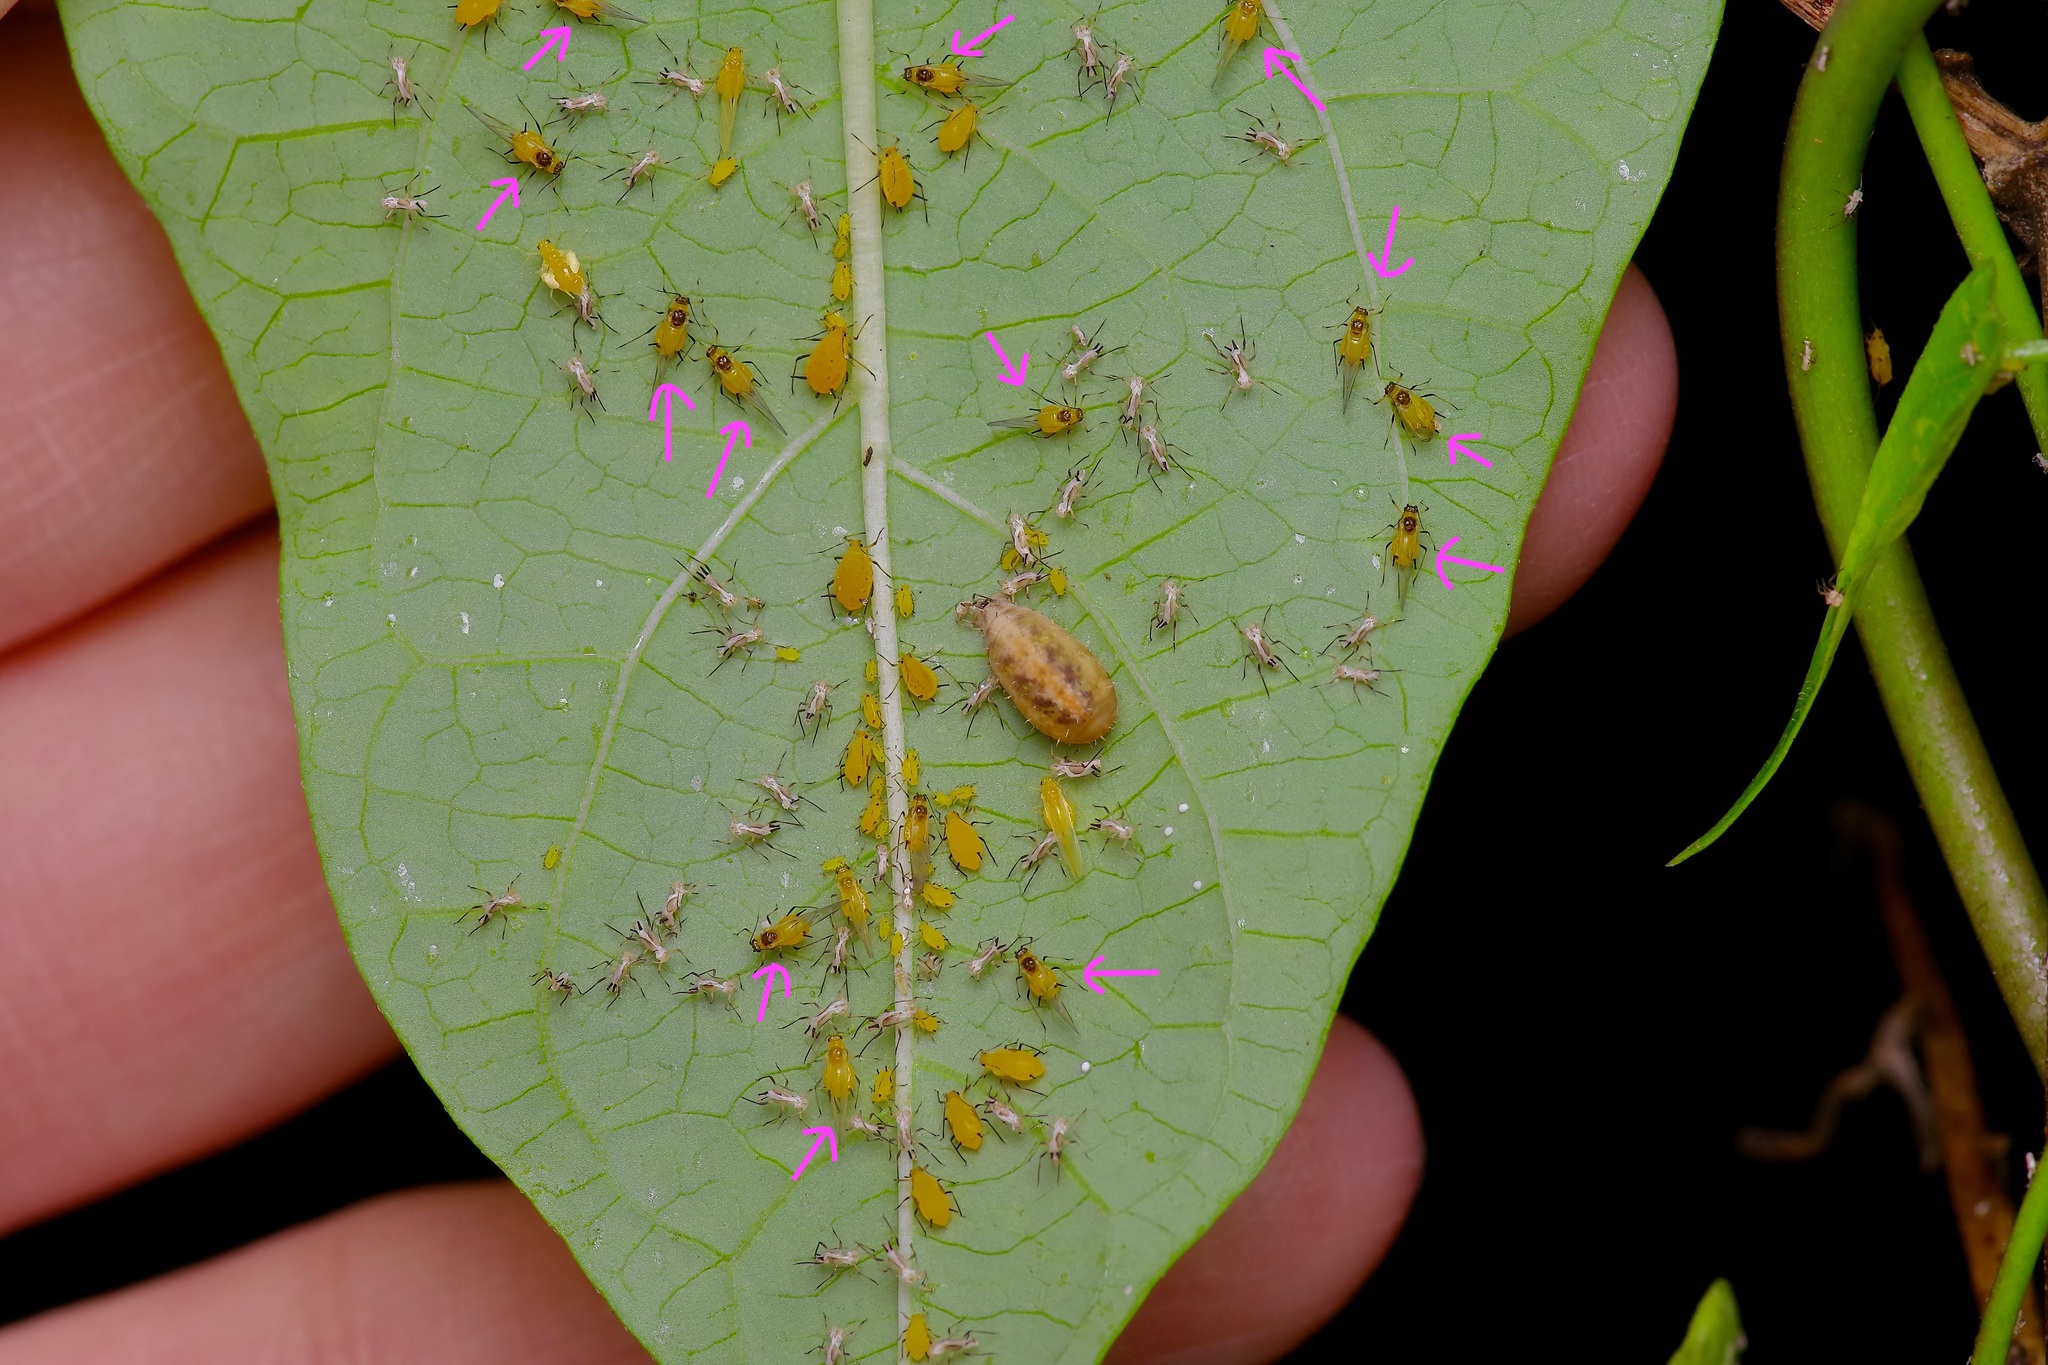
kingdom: Animalia
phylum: Arthropoda
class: Insecta
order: Hemiptera
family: Aphididae
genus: Aphis
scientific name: Aphis nerii
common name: Oleander aphid
